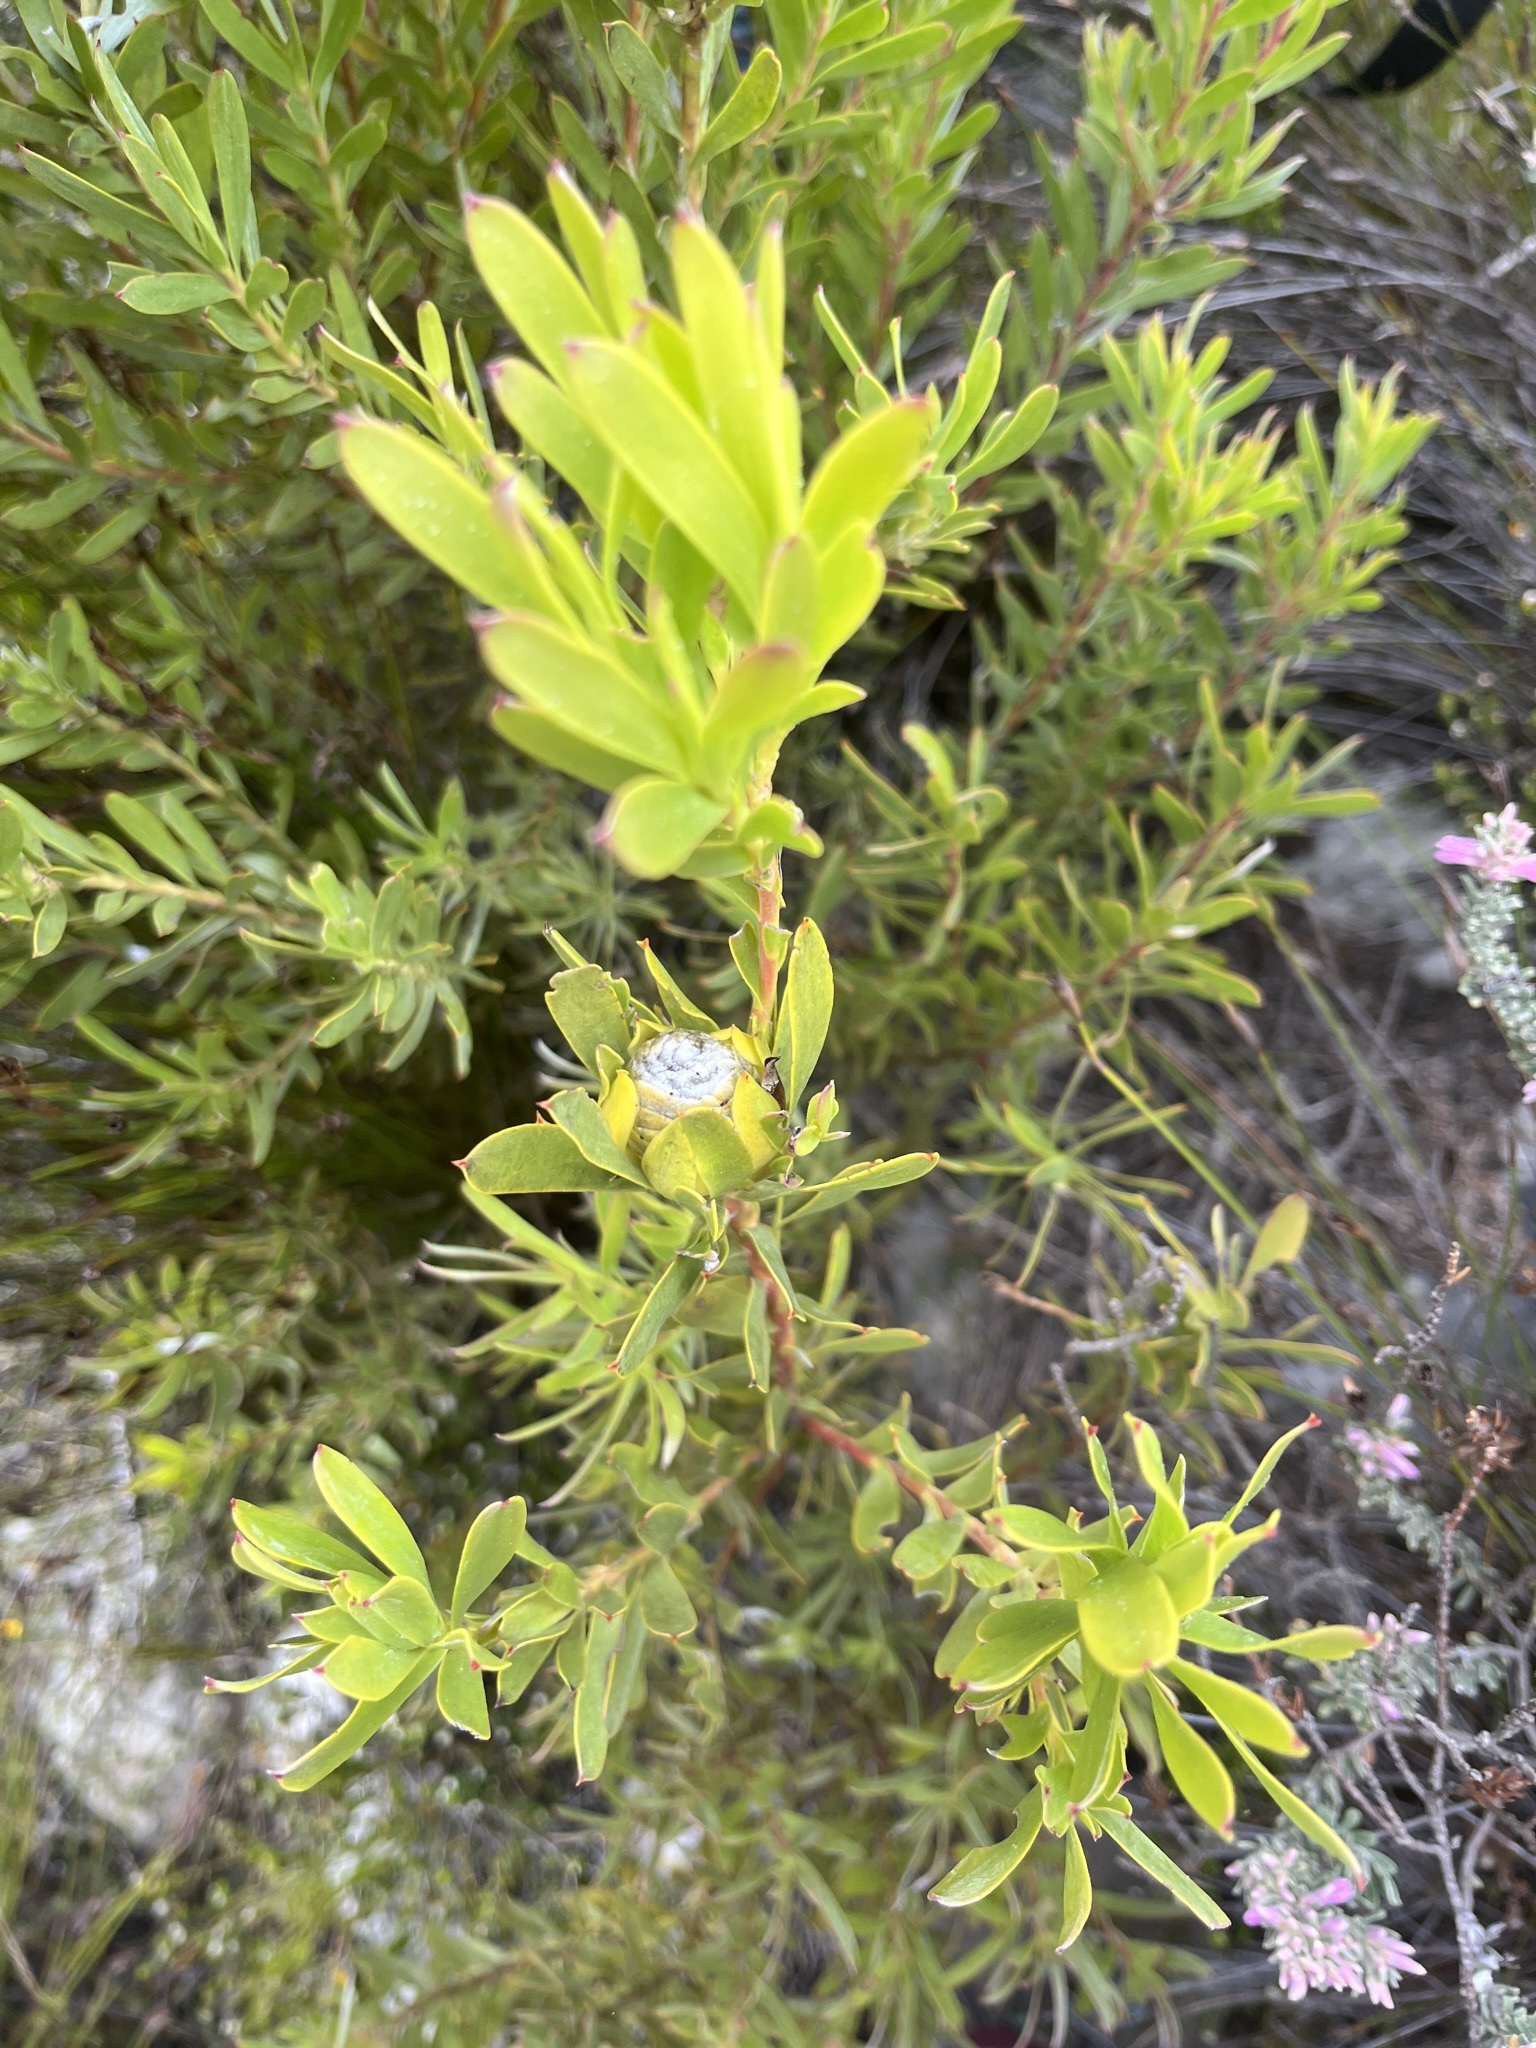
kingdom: Plantae
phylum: Tracheophyta
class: Magnoliopsida
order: Proteales
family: Proteaceae
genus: Leucadendron
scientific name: Leucadendron meridianum
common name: Limestone conebush
